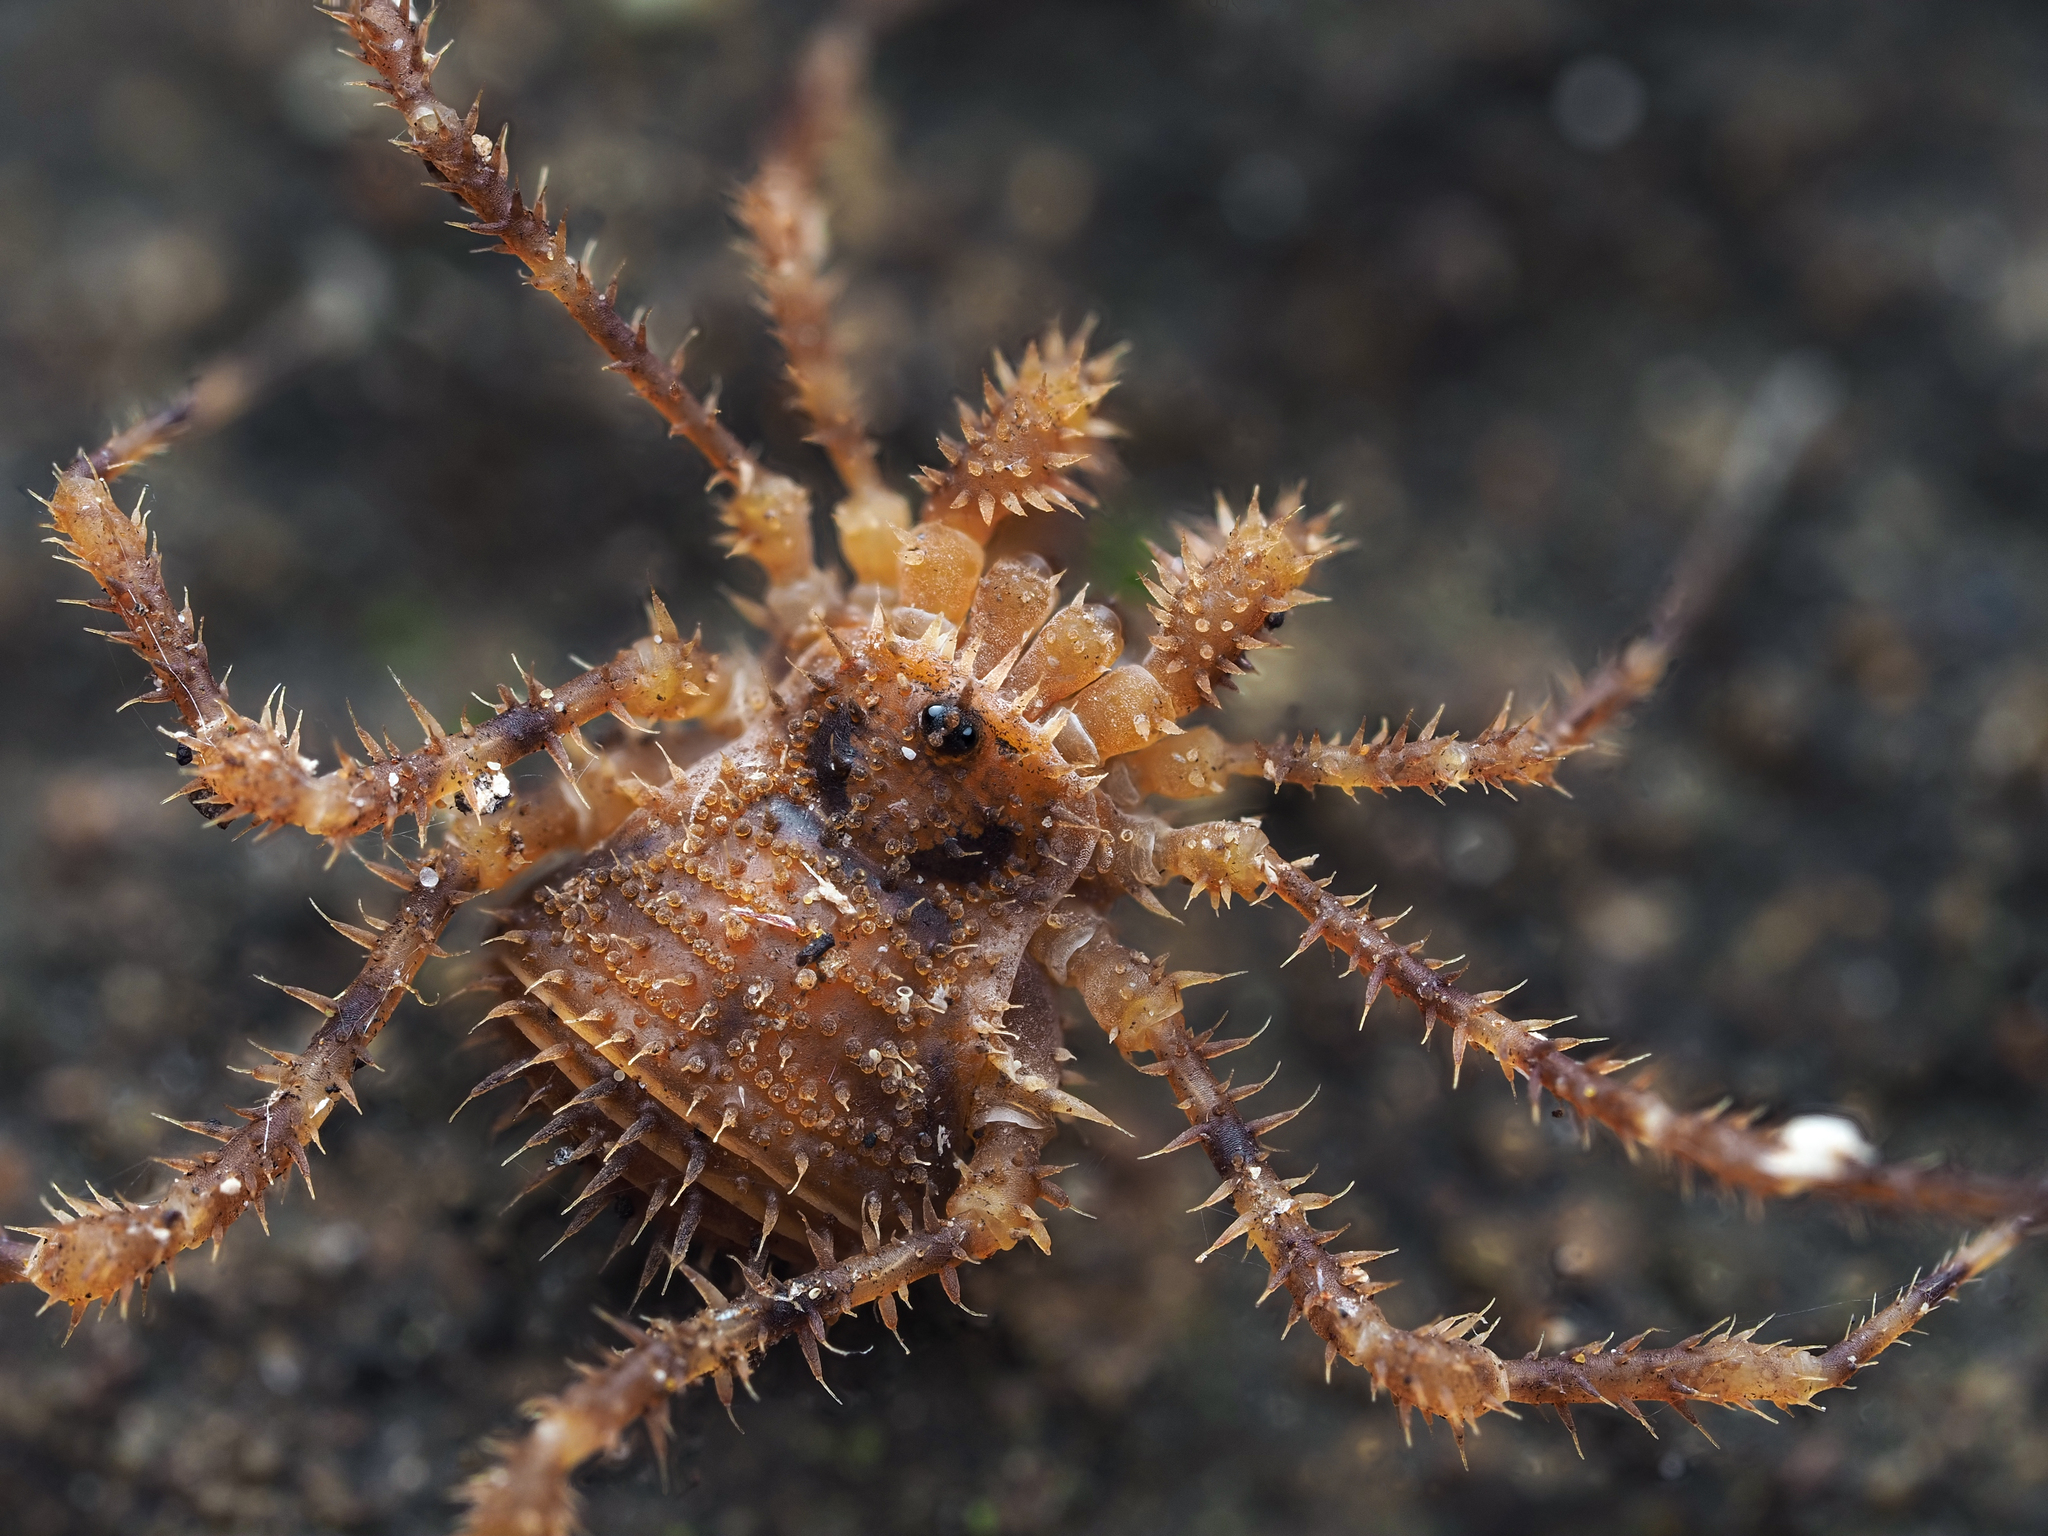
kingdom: Animalia
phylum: Arthropoda
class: Arachnida
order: Opiliones
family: Triaenonychidae
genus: Triregia
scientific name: Triregia fairburni
